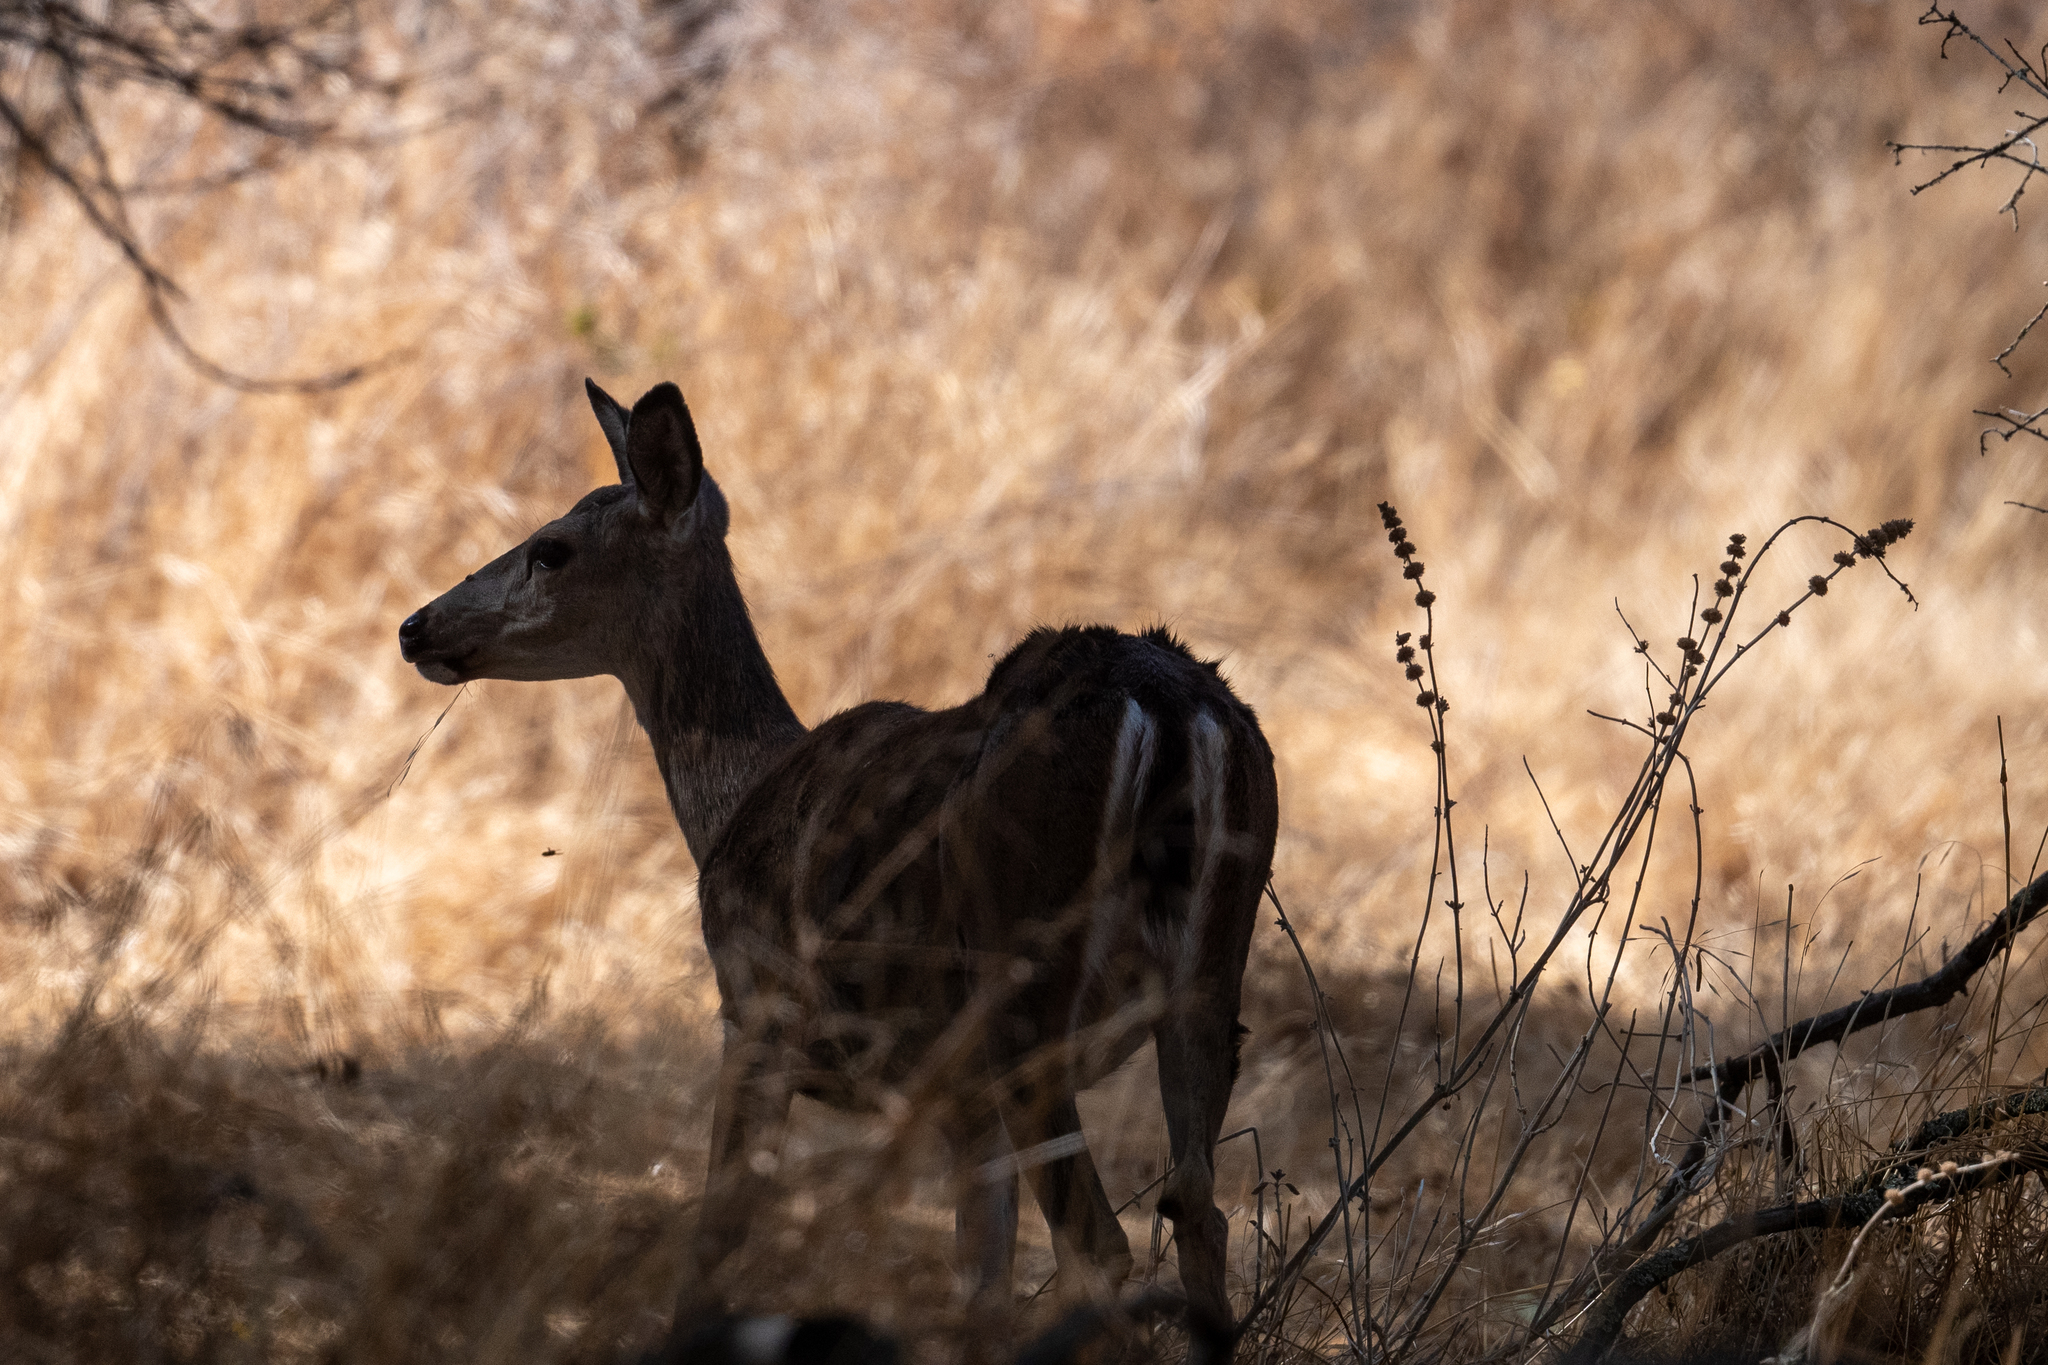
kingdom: Animalia
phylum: Chordata
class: Mammalia
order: Artiodactyla
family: Cervidae
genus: Odocoileus
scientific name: Odocoileus hemionus
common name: Mule deer
